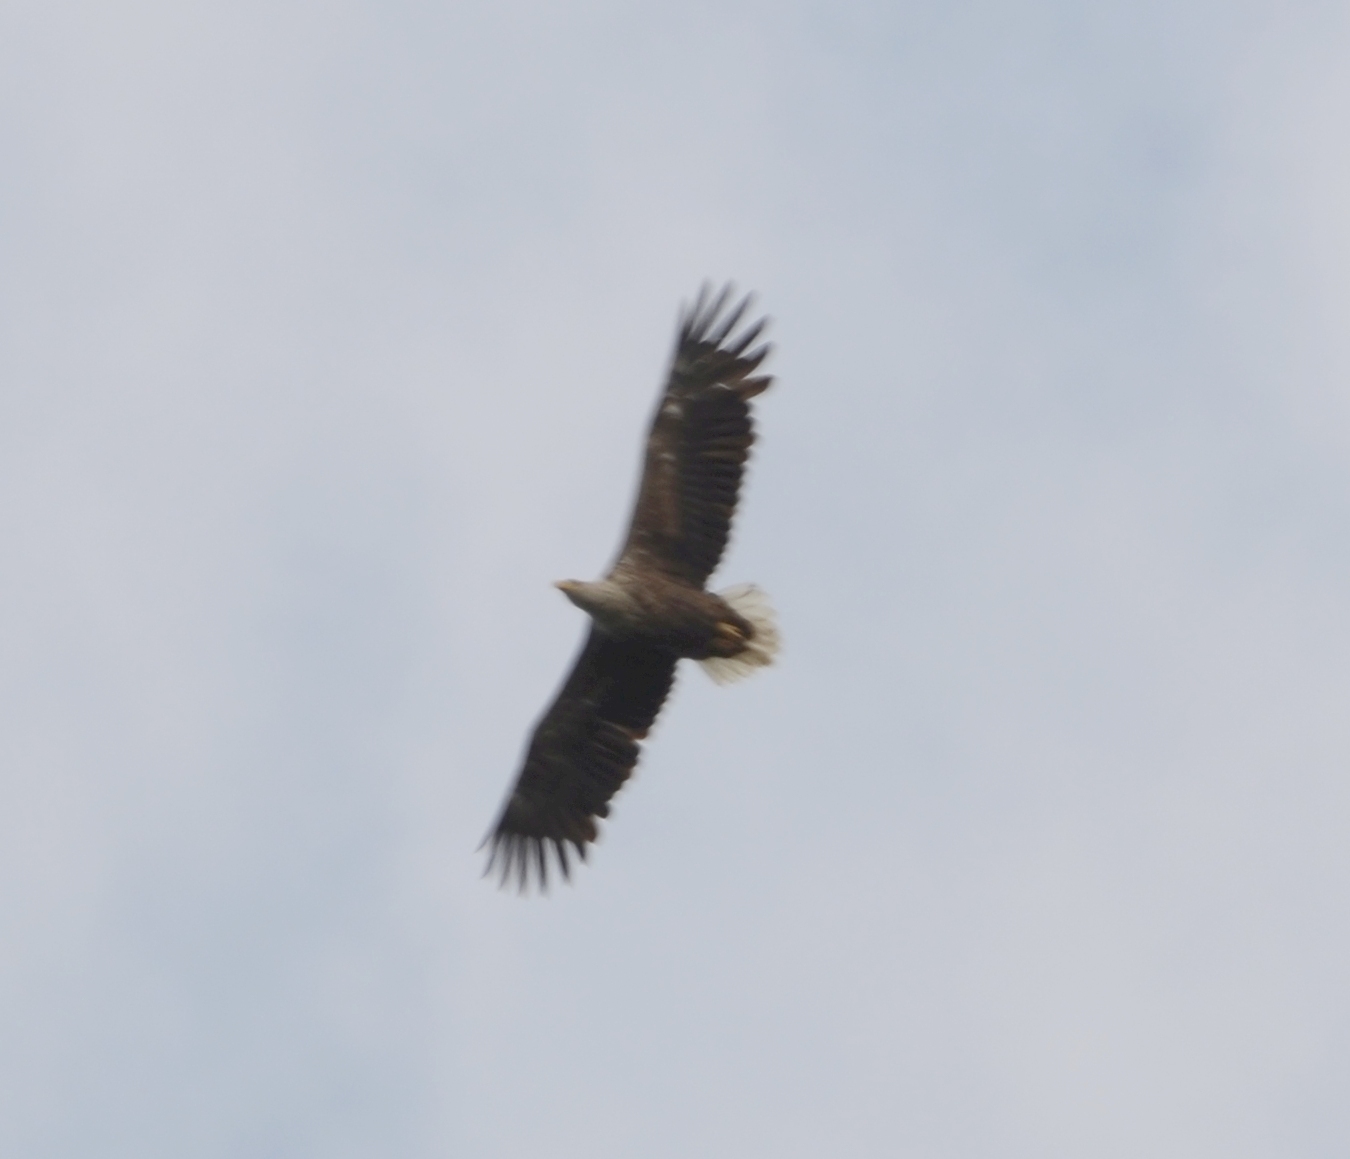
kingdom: Animalia
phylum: Chordata
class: Aves
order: Accipitriformes
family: Accipitridae
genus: Haliaeetus
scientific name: Haliaeetus albicilla
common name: White-tailed eagle
